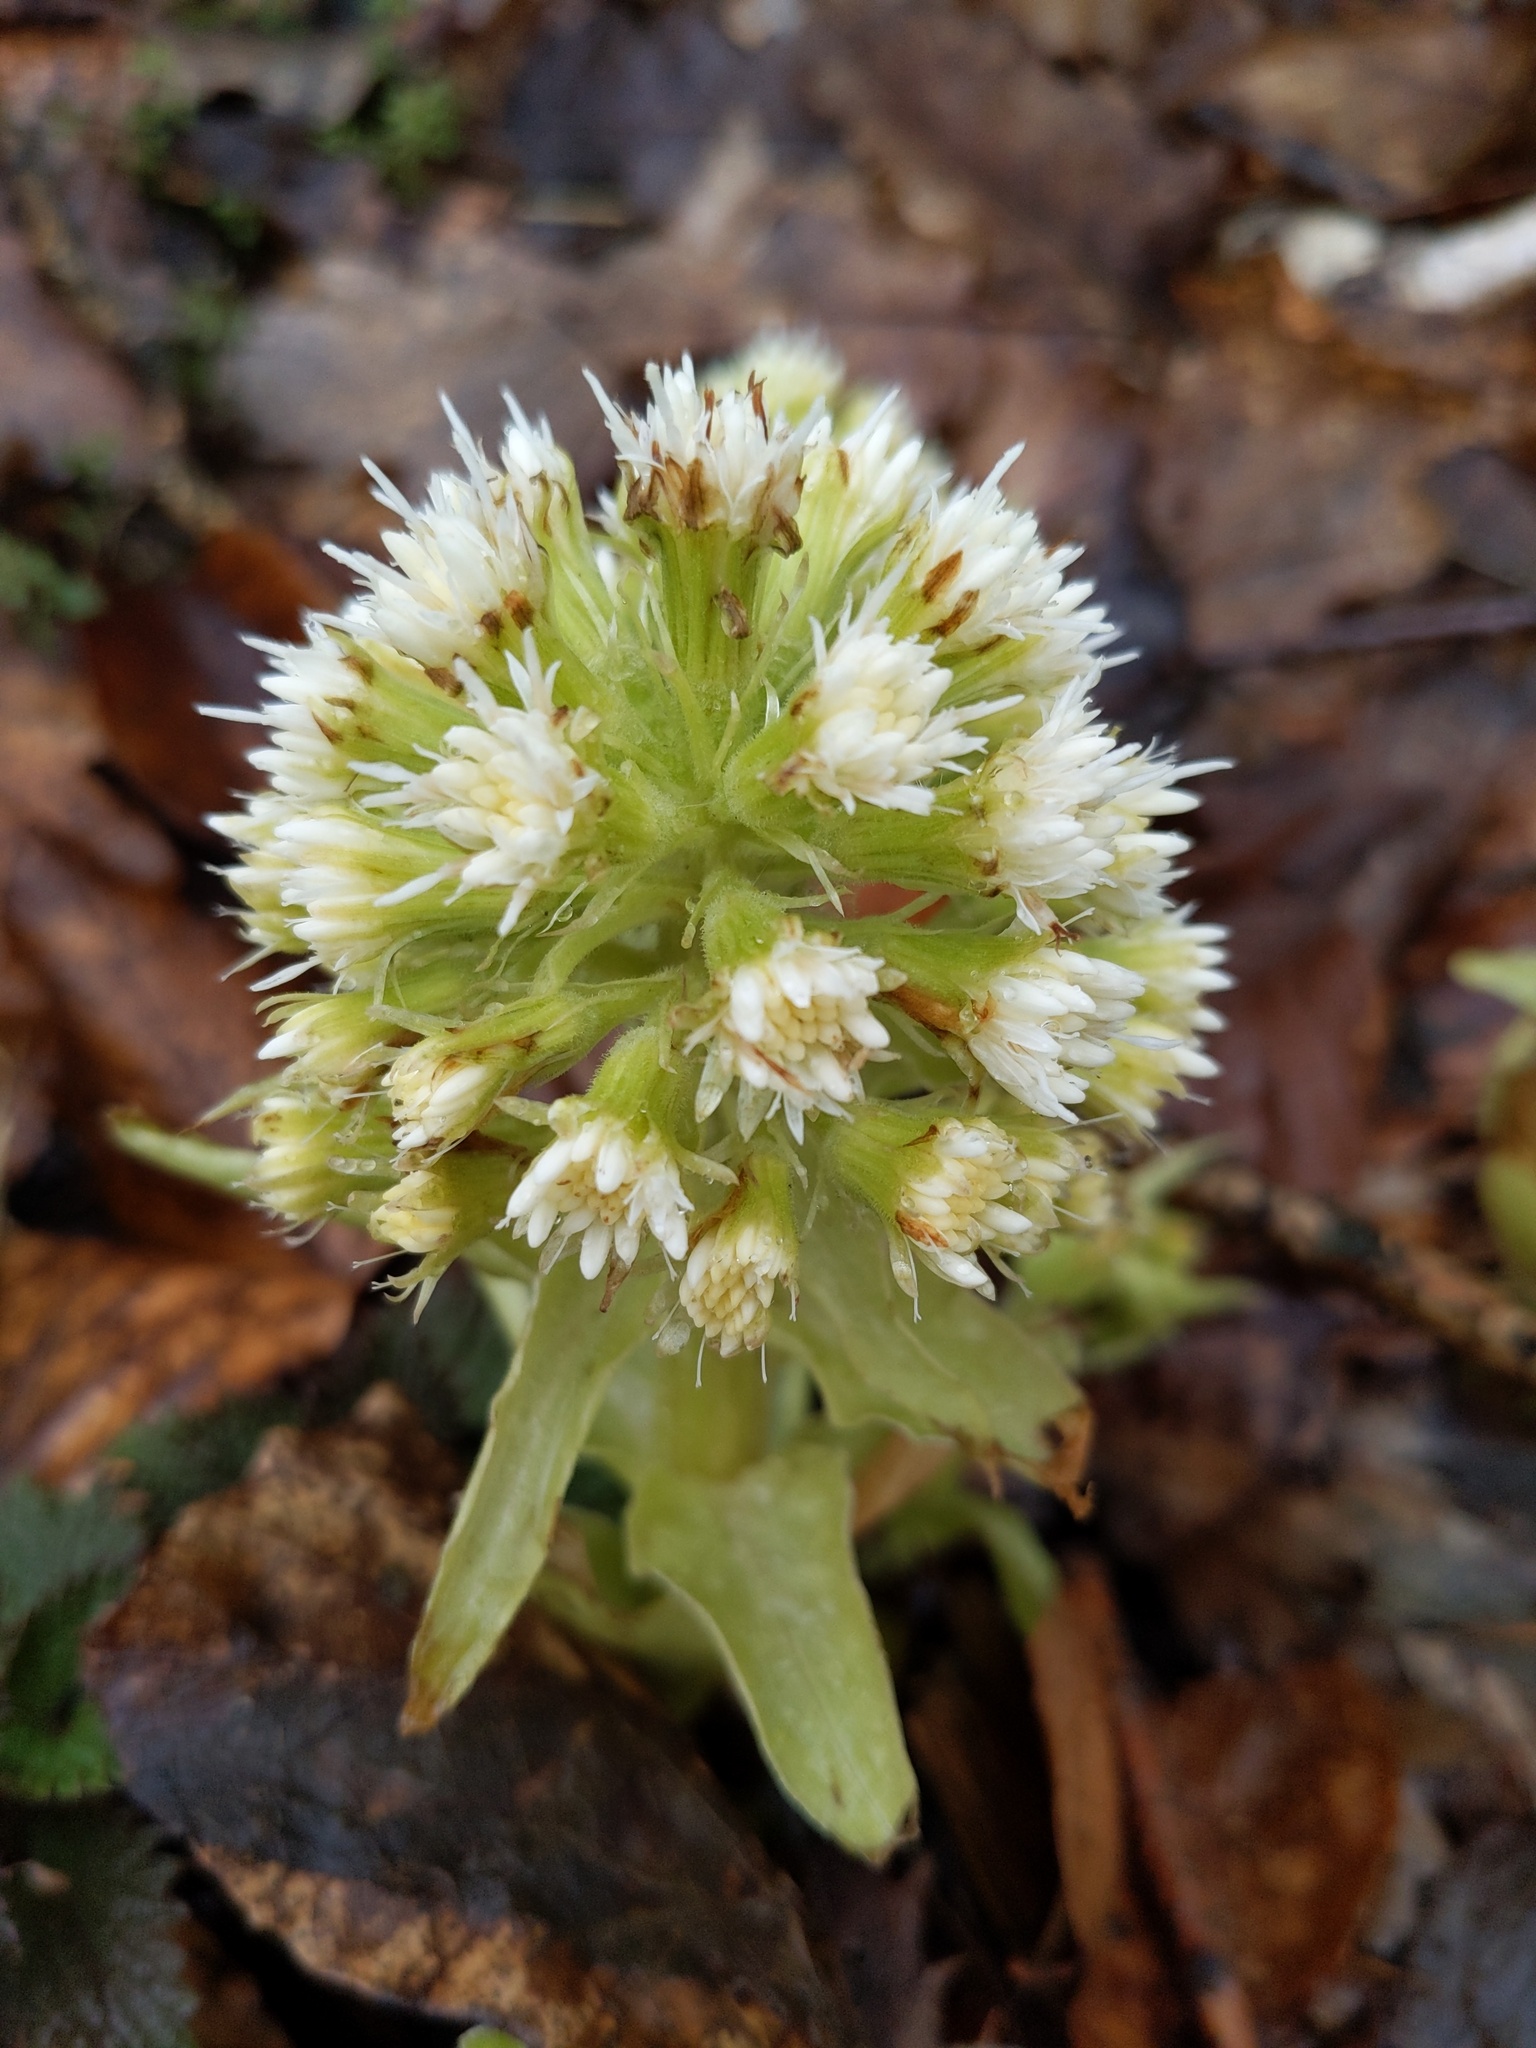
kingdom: Plantae
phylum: Tracheophyta
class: Magnoliopsida
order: Asterales
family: Asteraceae
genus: Petasites
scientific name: Petasites albus
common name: White butterbur
